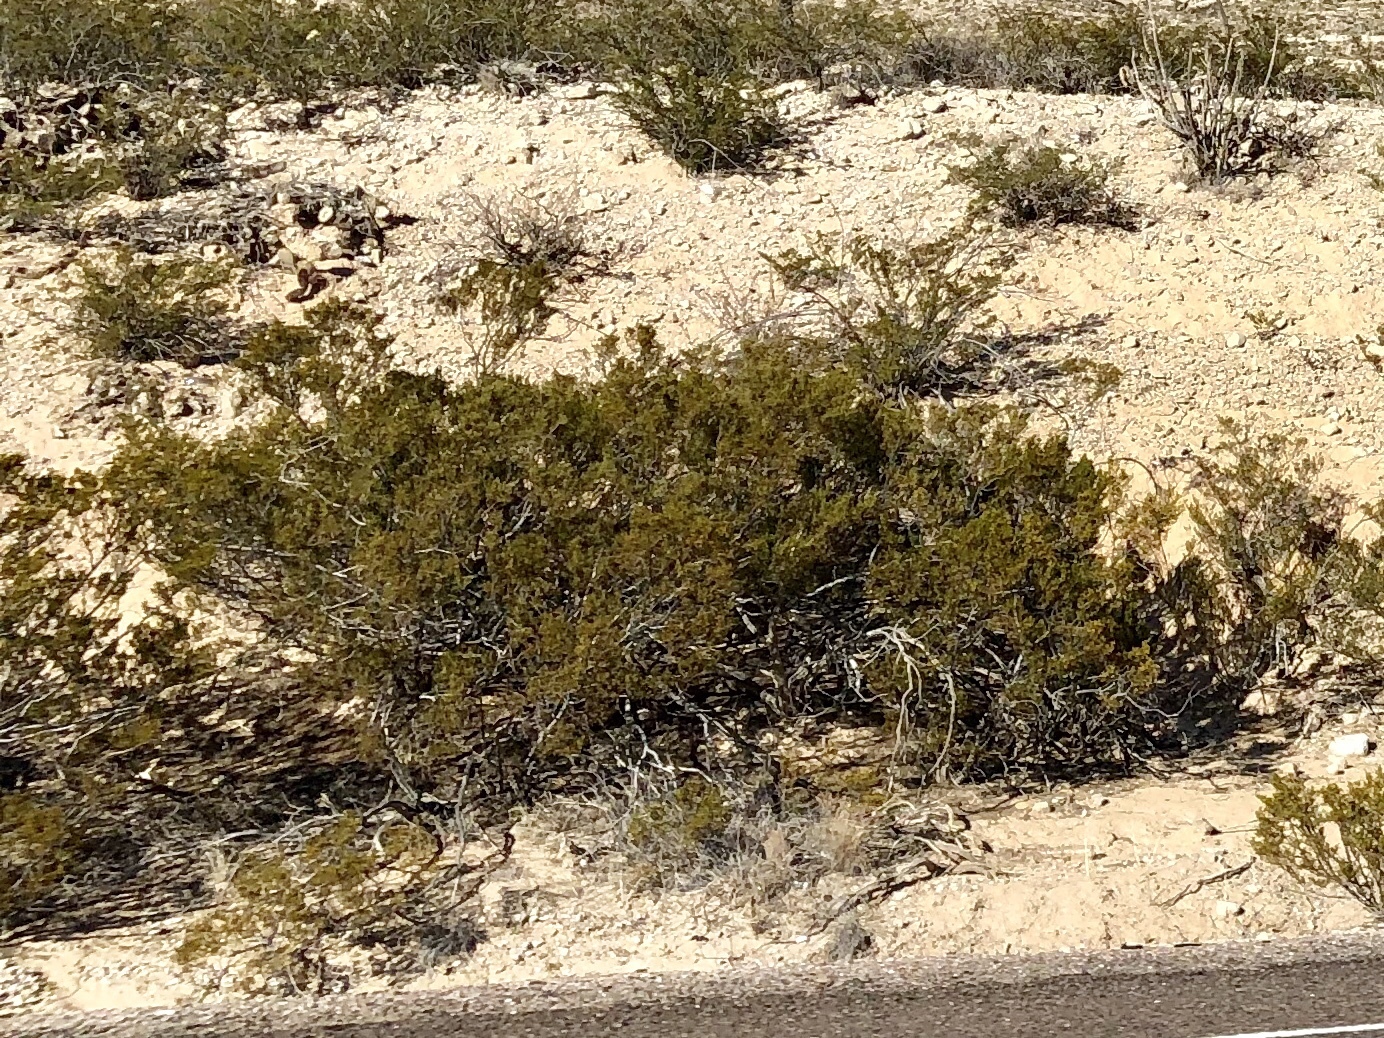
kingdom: Plantae
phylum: Tracheophyta
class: Magnoliopsida
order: Zygophyllales
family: Zygophyllaceae
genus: Larrea
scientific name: Larrea tridentata
